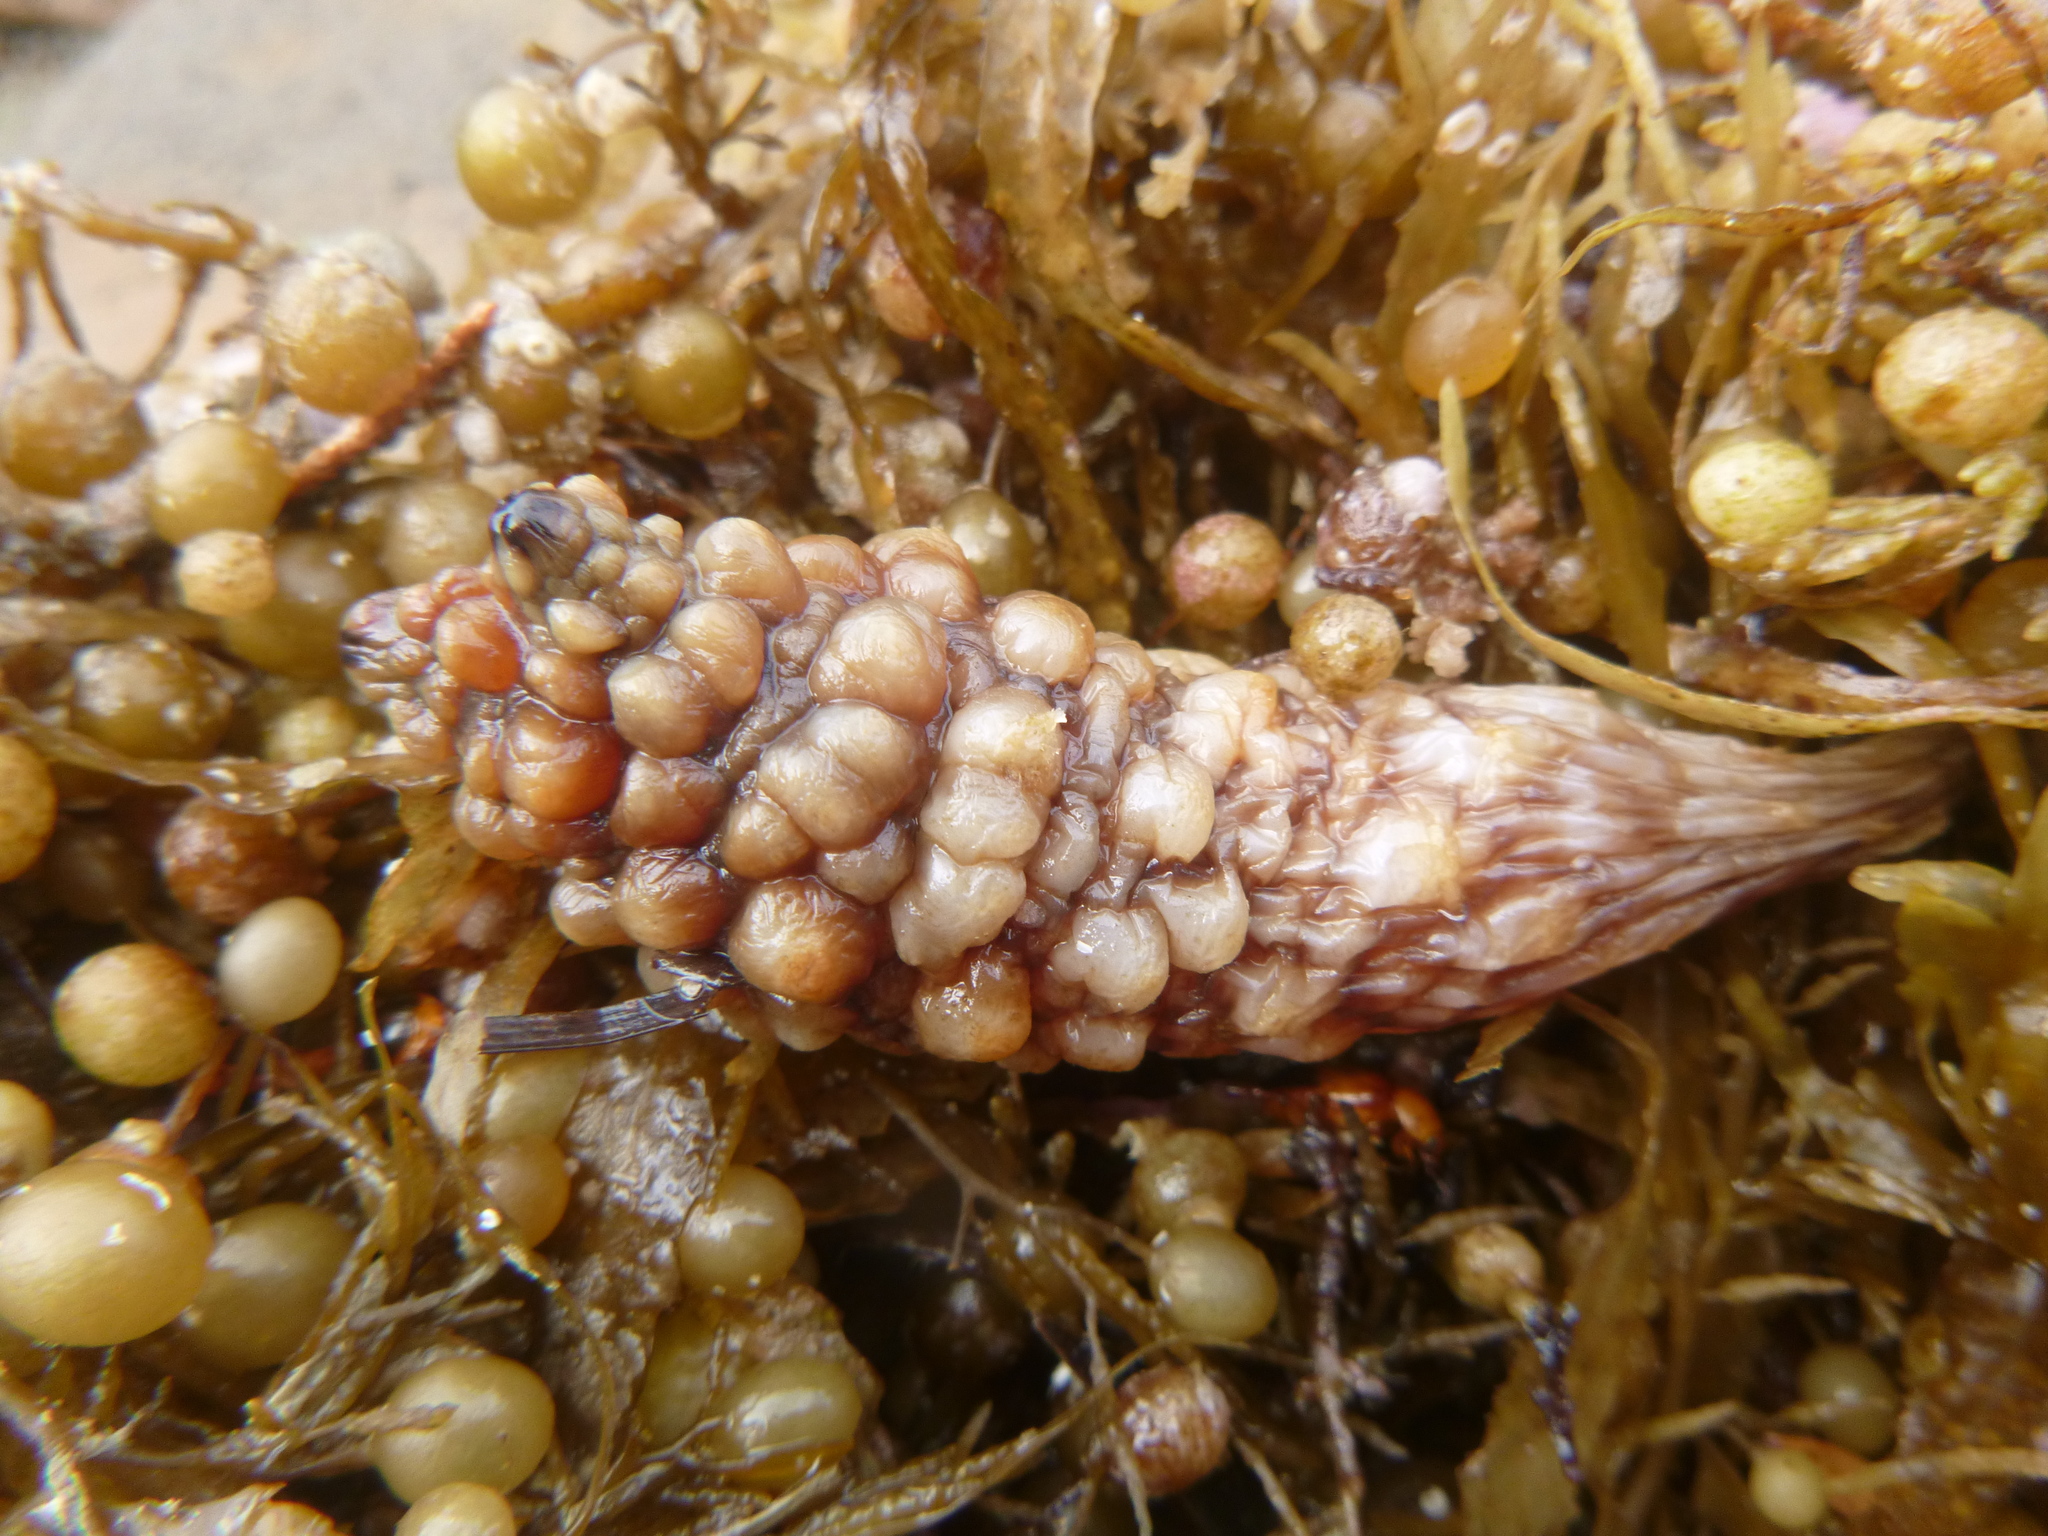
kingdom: Animalia
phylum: Chordata
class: Ascidiacea
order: Stolidobranchia
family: Styelidae
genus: Styela
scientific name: Styela clava
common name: Leathery sea squirt
